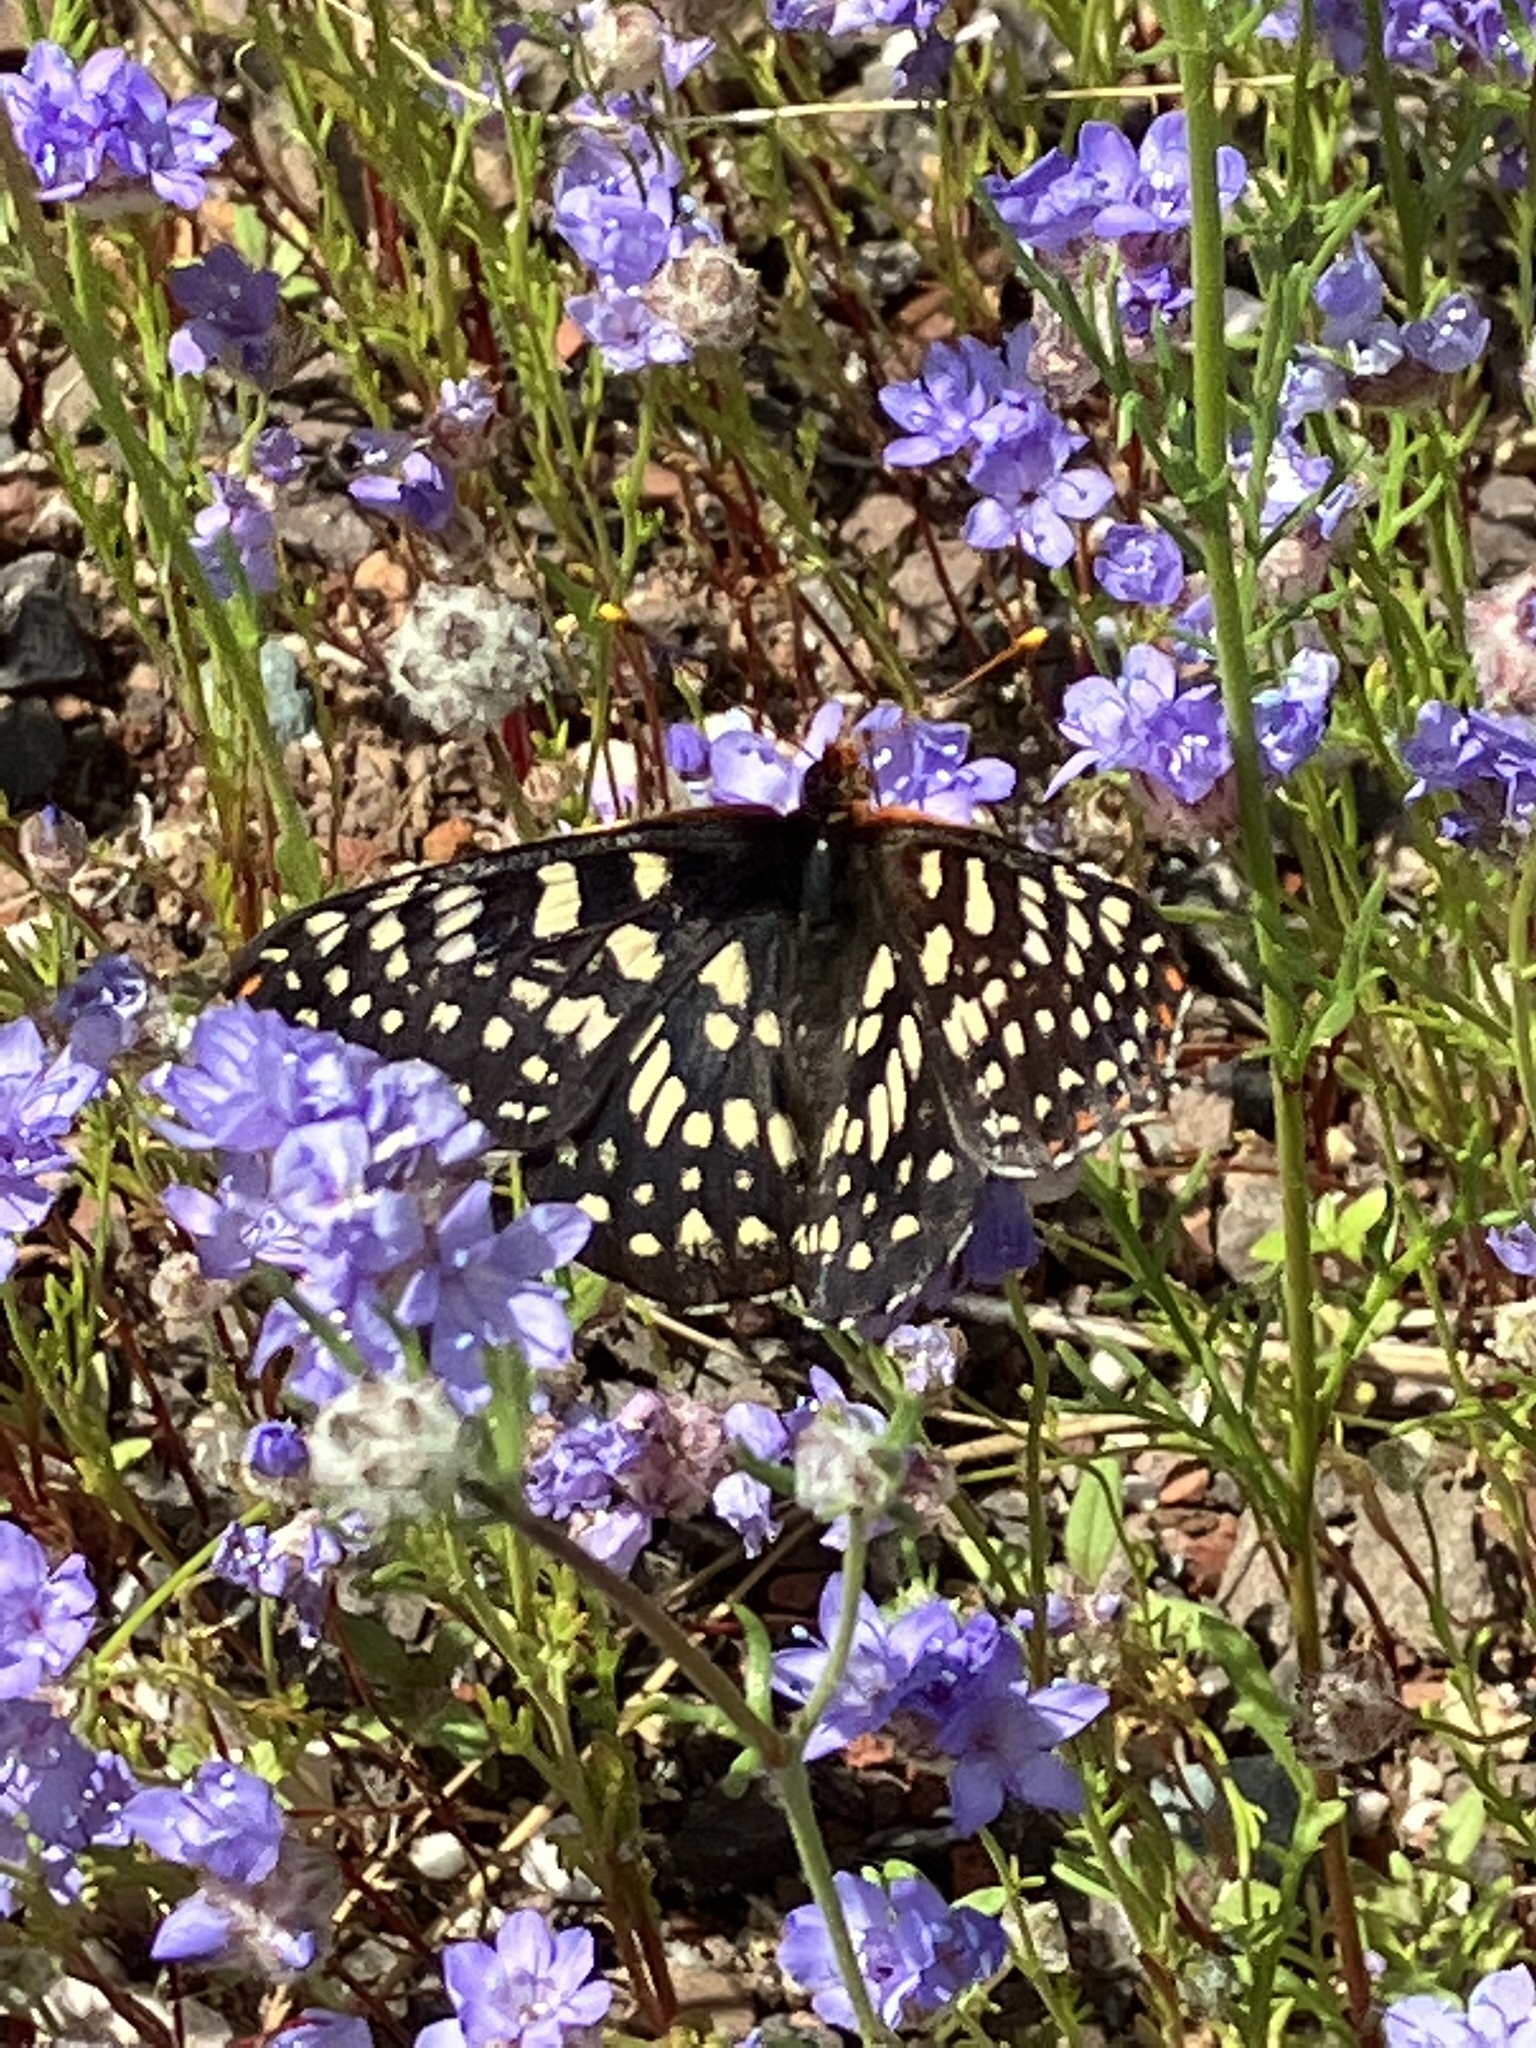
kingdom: Animalia
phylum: Arthropoda
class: Insecta
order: Lepidoptera
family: Nymphalidae
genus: Occidryas
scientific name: Occidryas chalcedona
